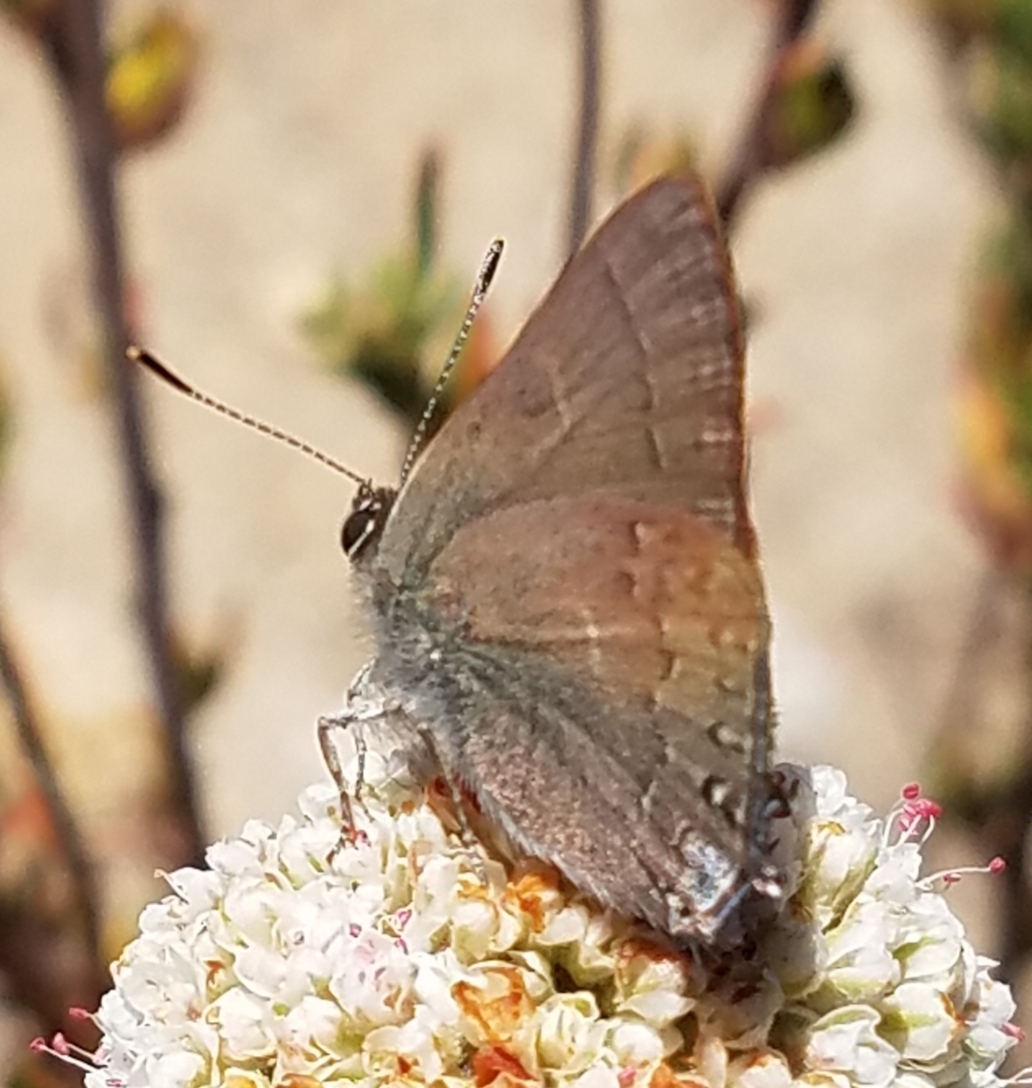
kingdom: Animalia
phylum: Arthropoda
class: Insecta
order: Lepidoptera
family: Lycaenidae
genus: Strymon
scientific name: Strymon saepium
